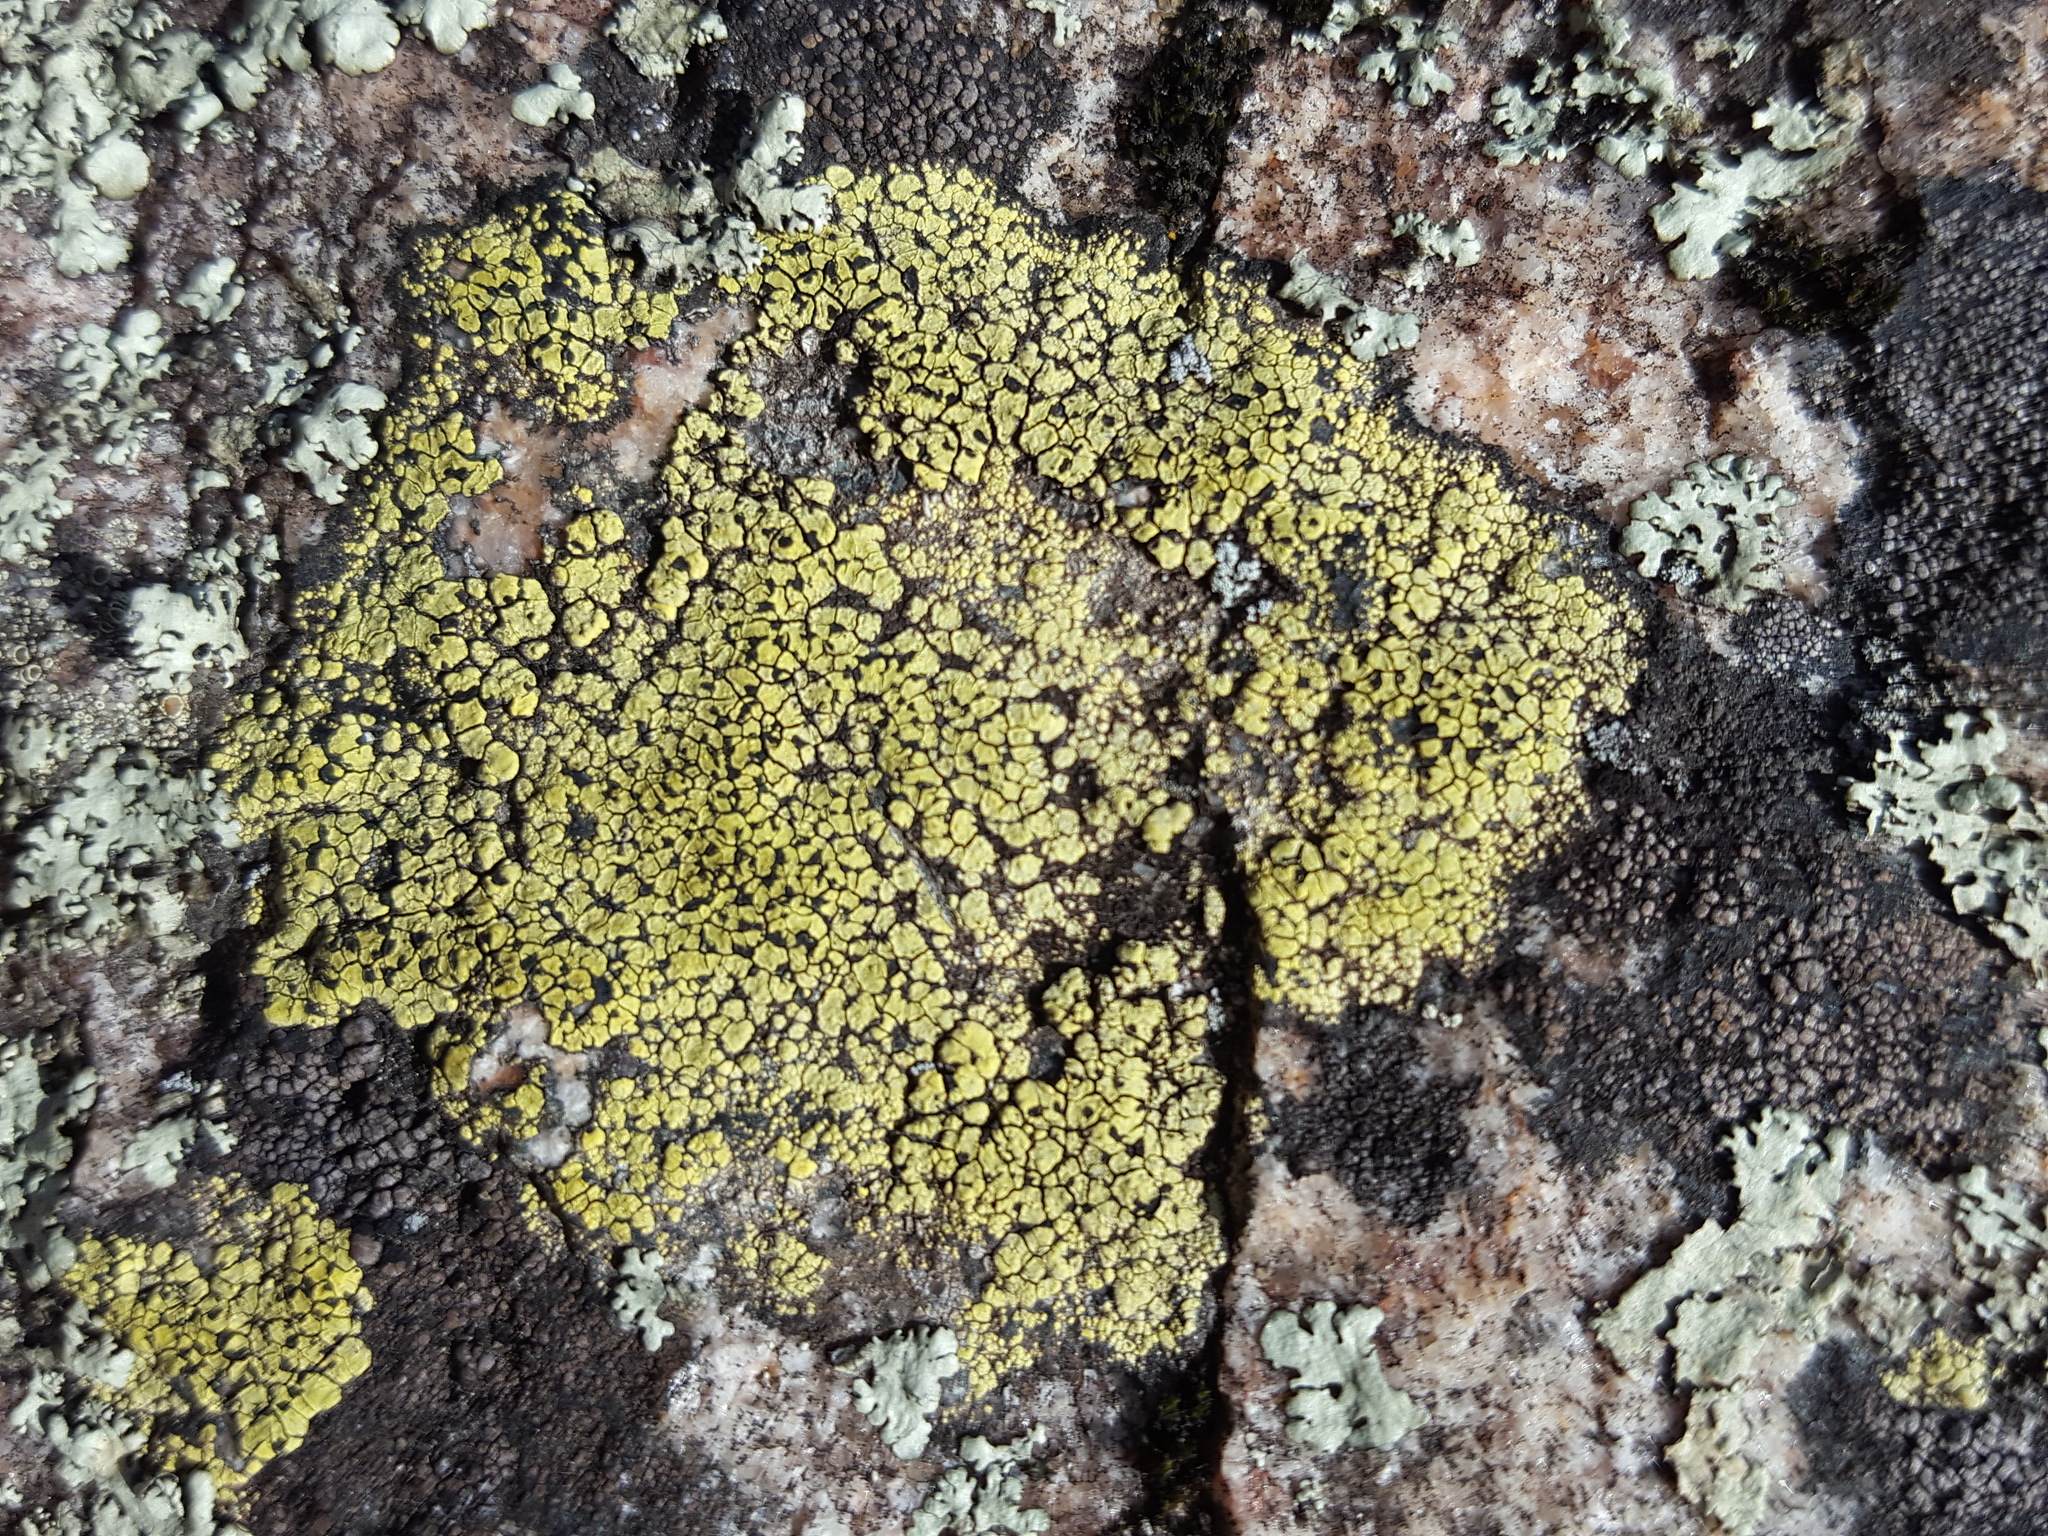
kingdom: Fungi
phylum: Ascomycota
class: Lecanoromycetes
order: Rhizocarpales
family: Rhizocarpaceae
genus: Rhizocarpon
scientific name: Rhizocarpon geographicum
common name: Yellow map lichen
